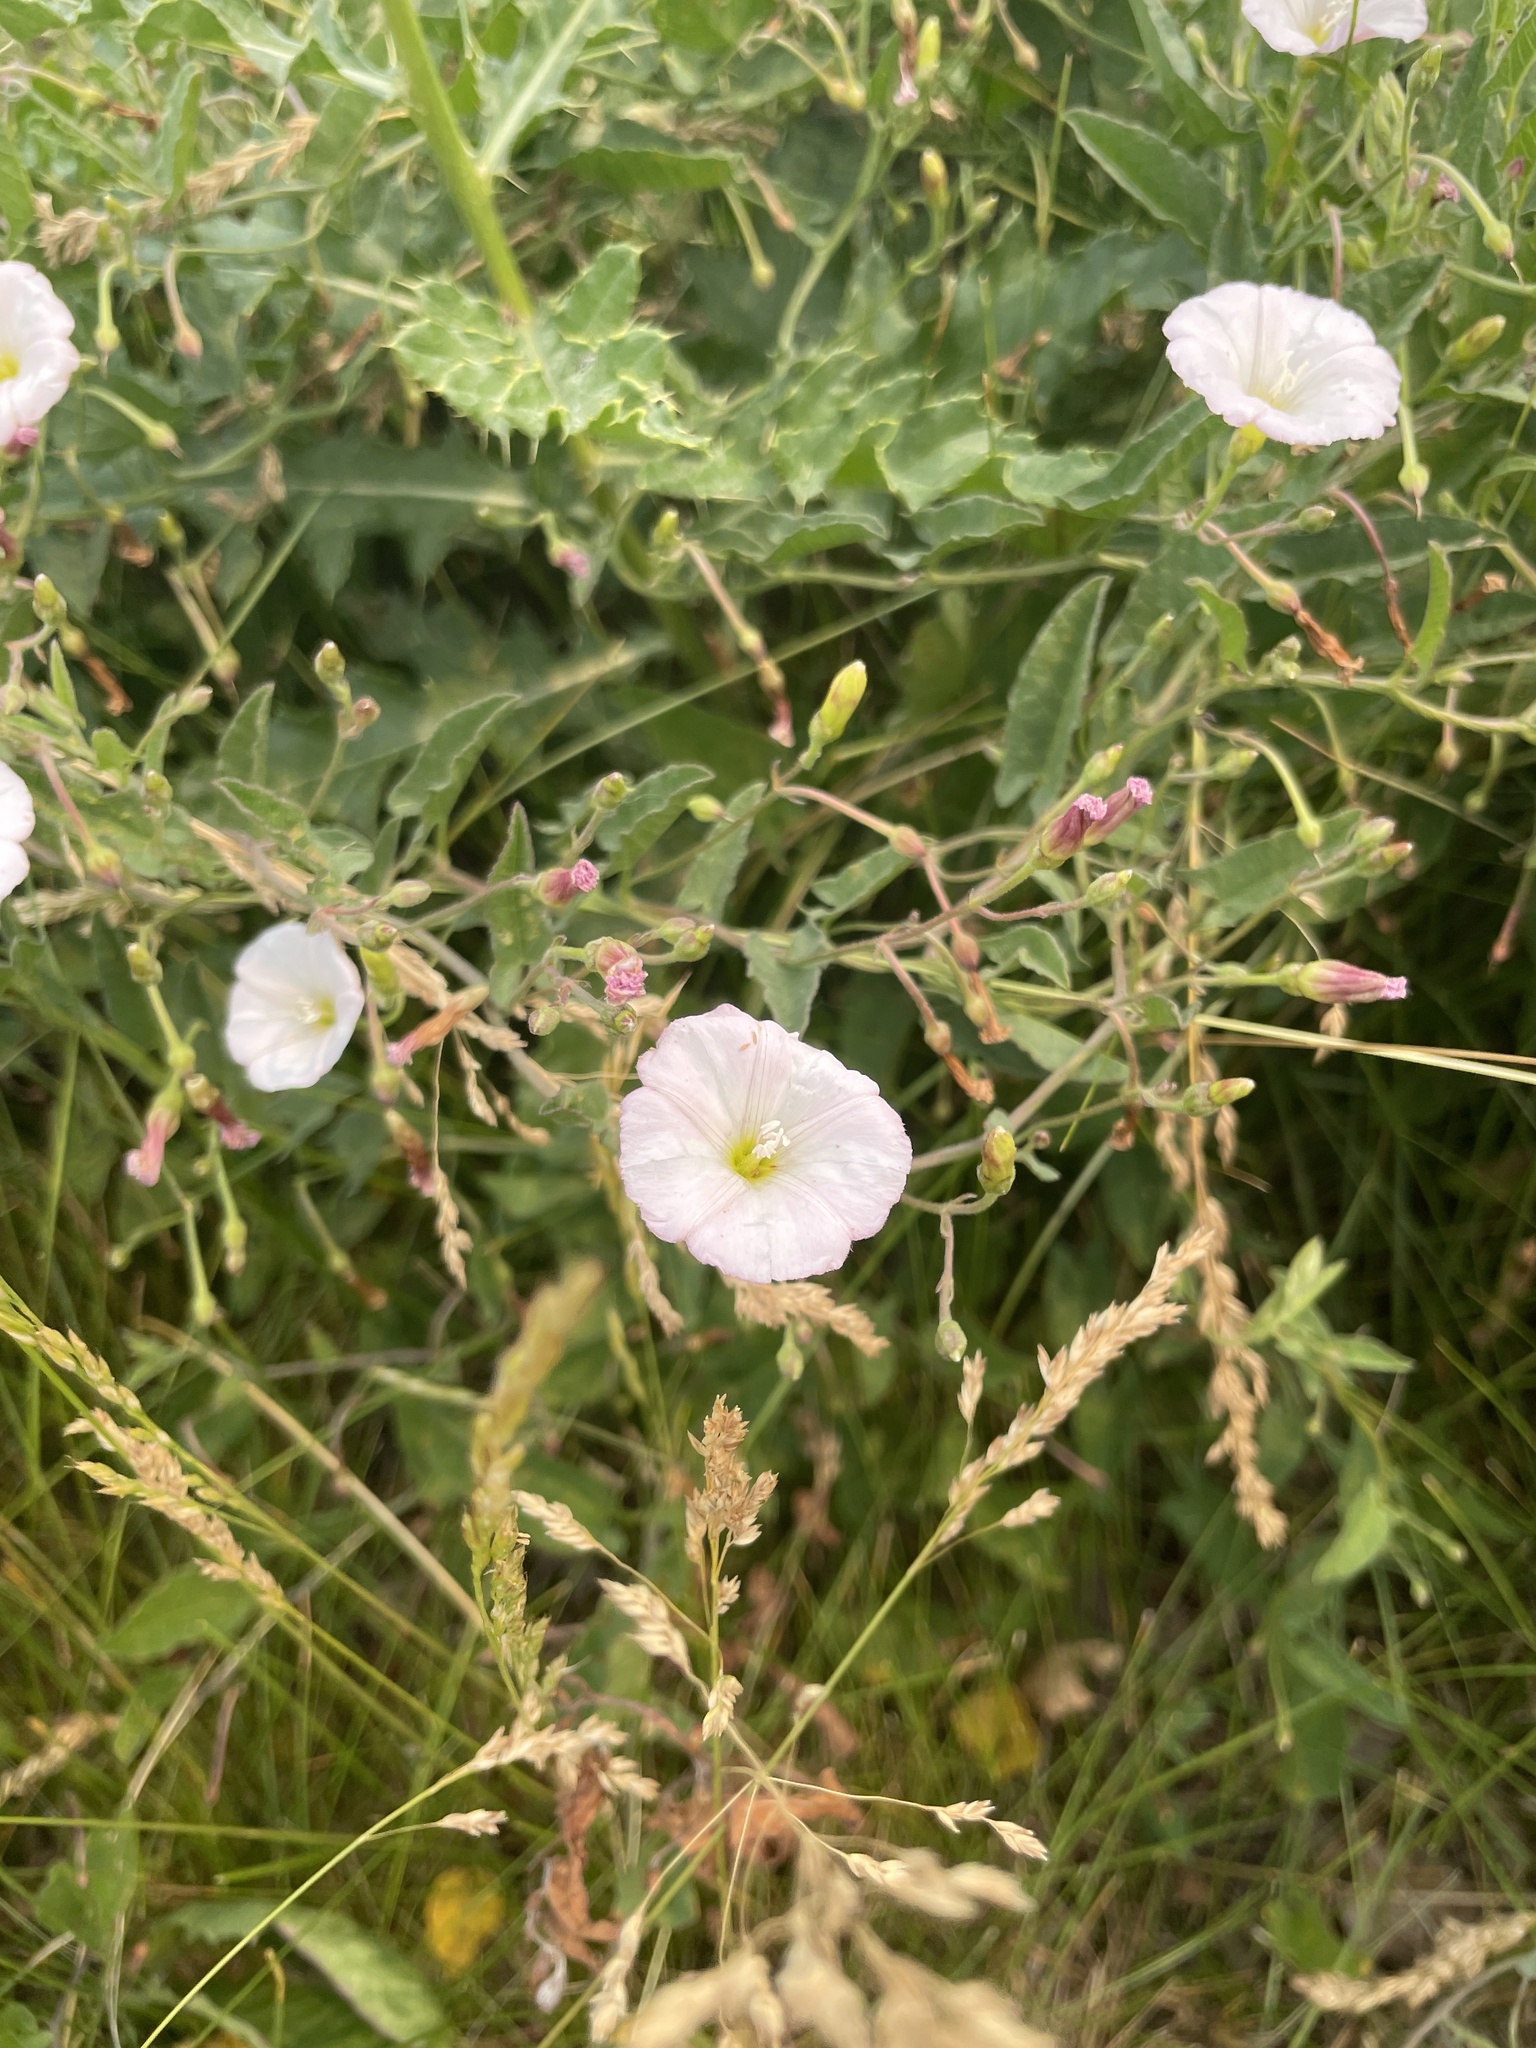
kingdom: Plantae
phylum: Tracheophyta
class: Magnoliopsida
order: Solanales
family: Convolvulaceae
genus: Convolvulus
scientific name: Convolvulus arvensis
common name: Field bindweed
